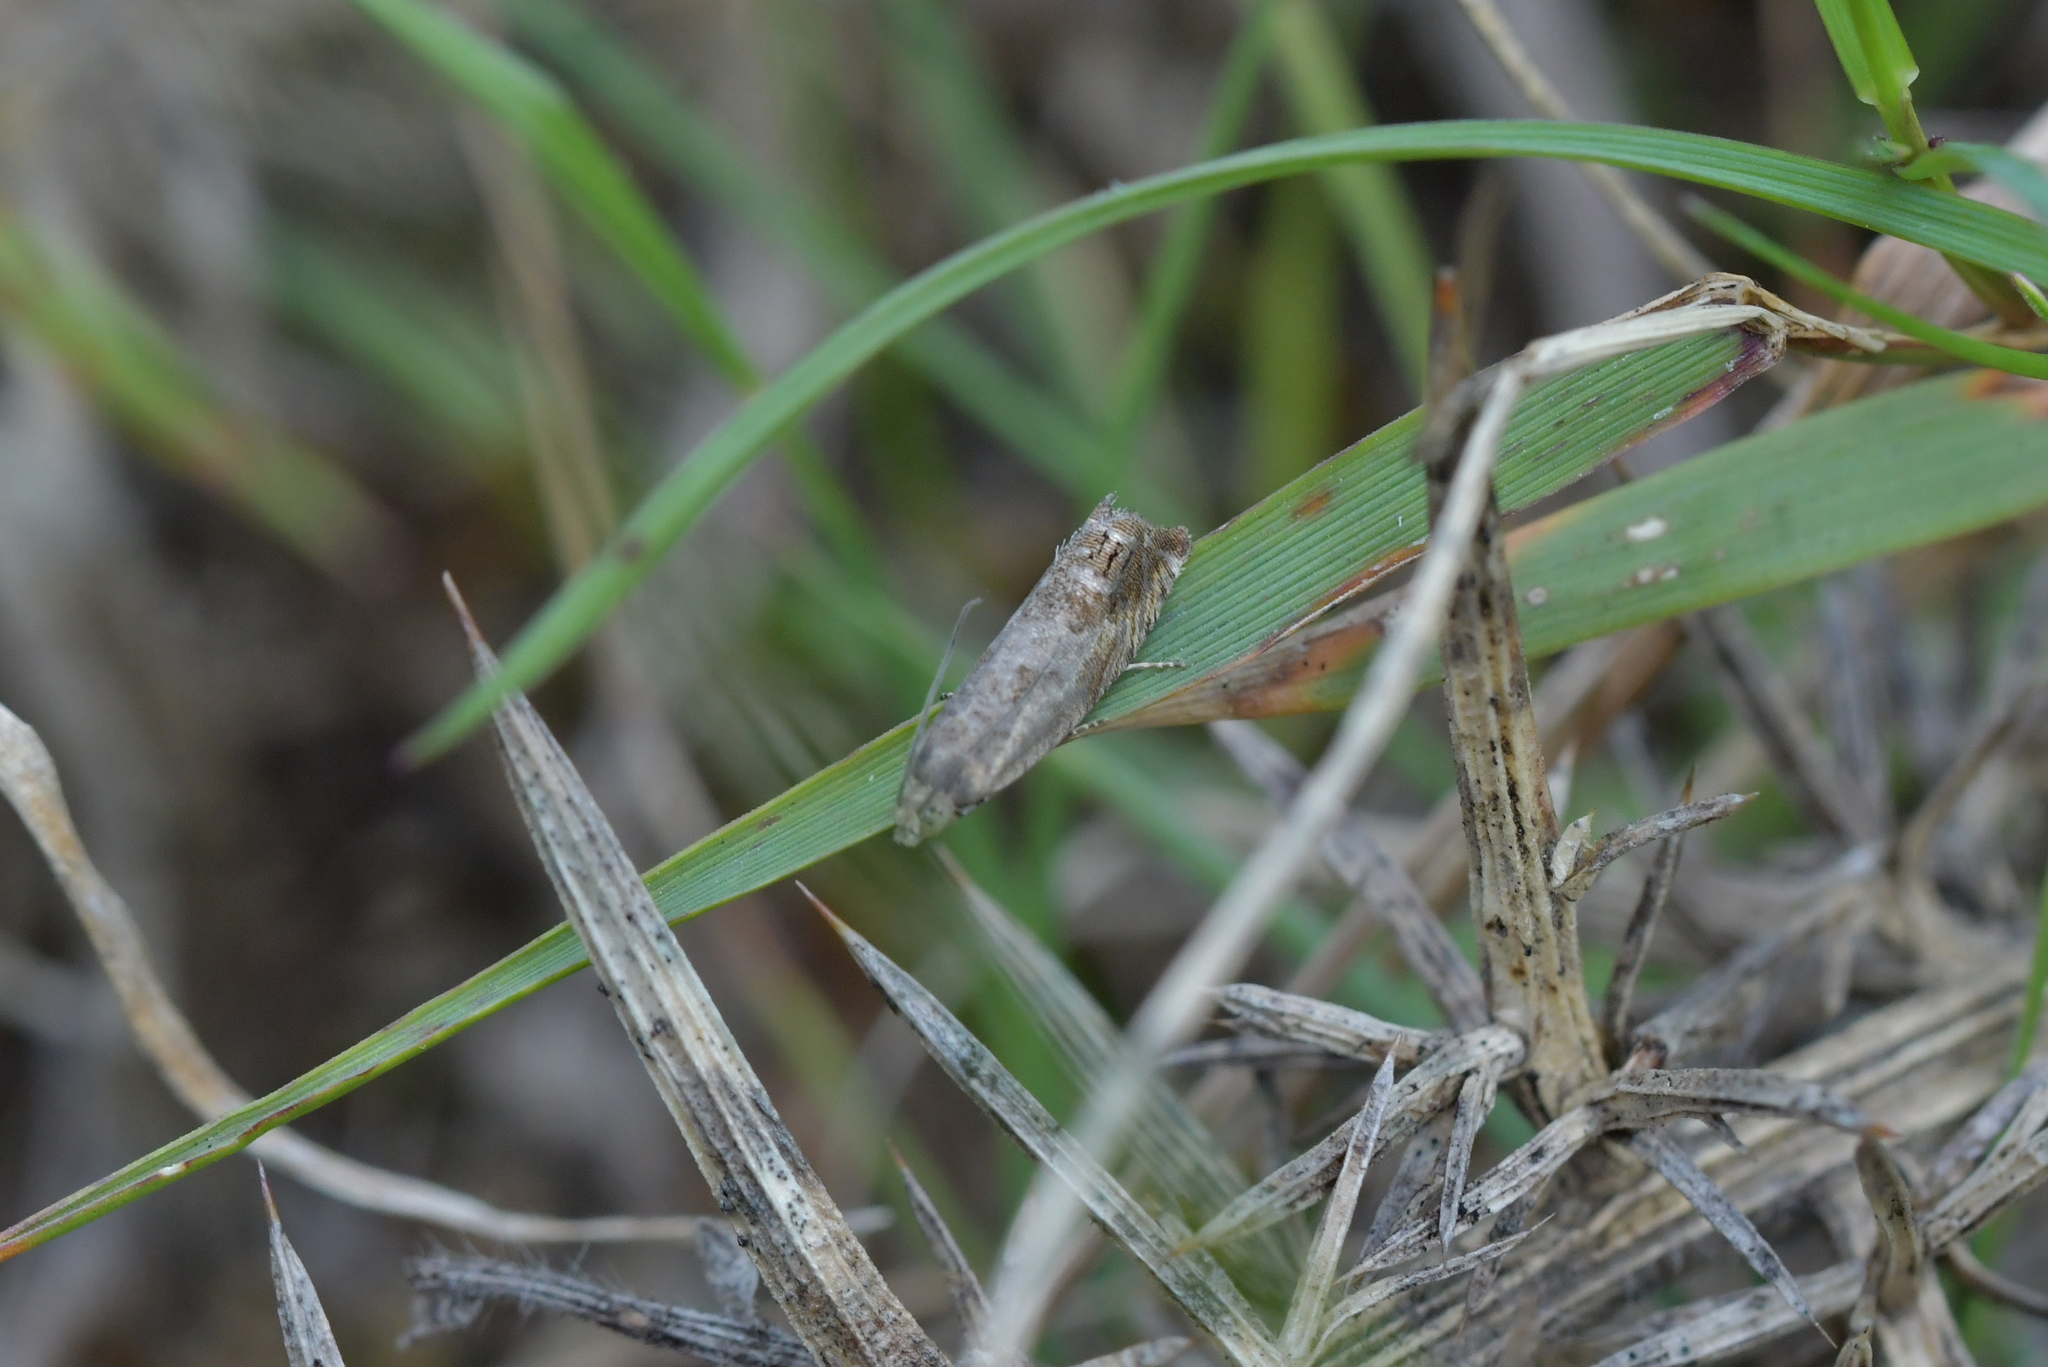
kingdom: Animalia
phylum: Arthropoda
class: Insecta
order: Lepidoptera
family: Tortricidae
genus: Cydia
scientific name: Cydia succedana
